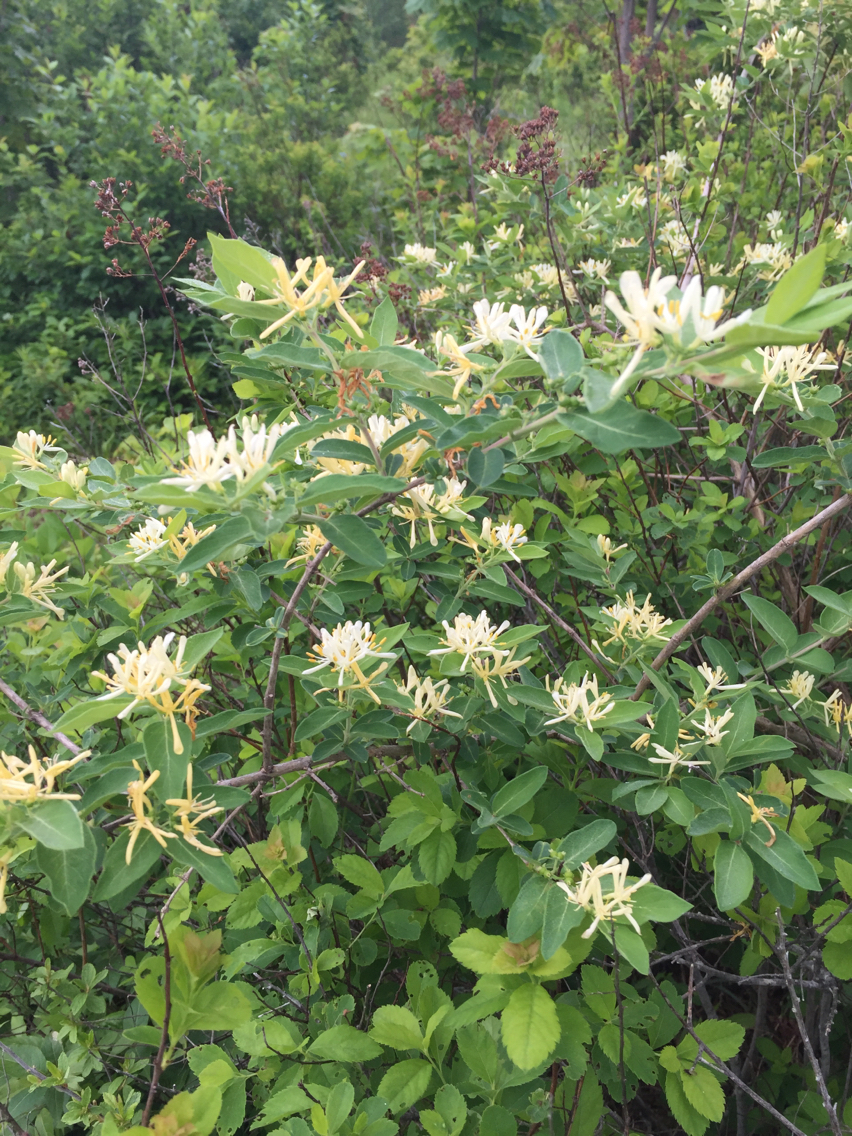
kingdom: Plantae
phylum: Tracheophyta
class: Magnoliopsida
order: Dipsacales
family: Caprifoliaceae
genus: Lonicera
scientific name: Lonicera morrowii
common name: Morrow's honeysuckle
